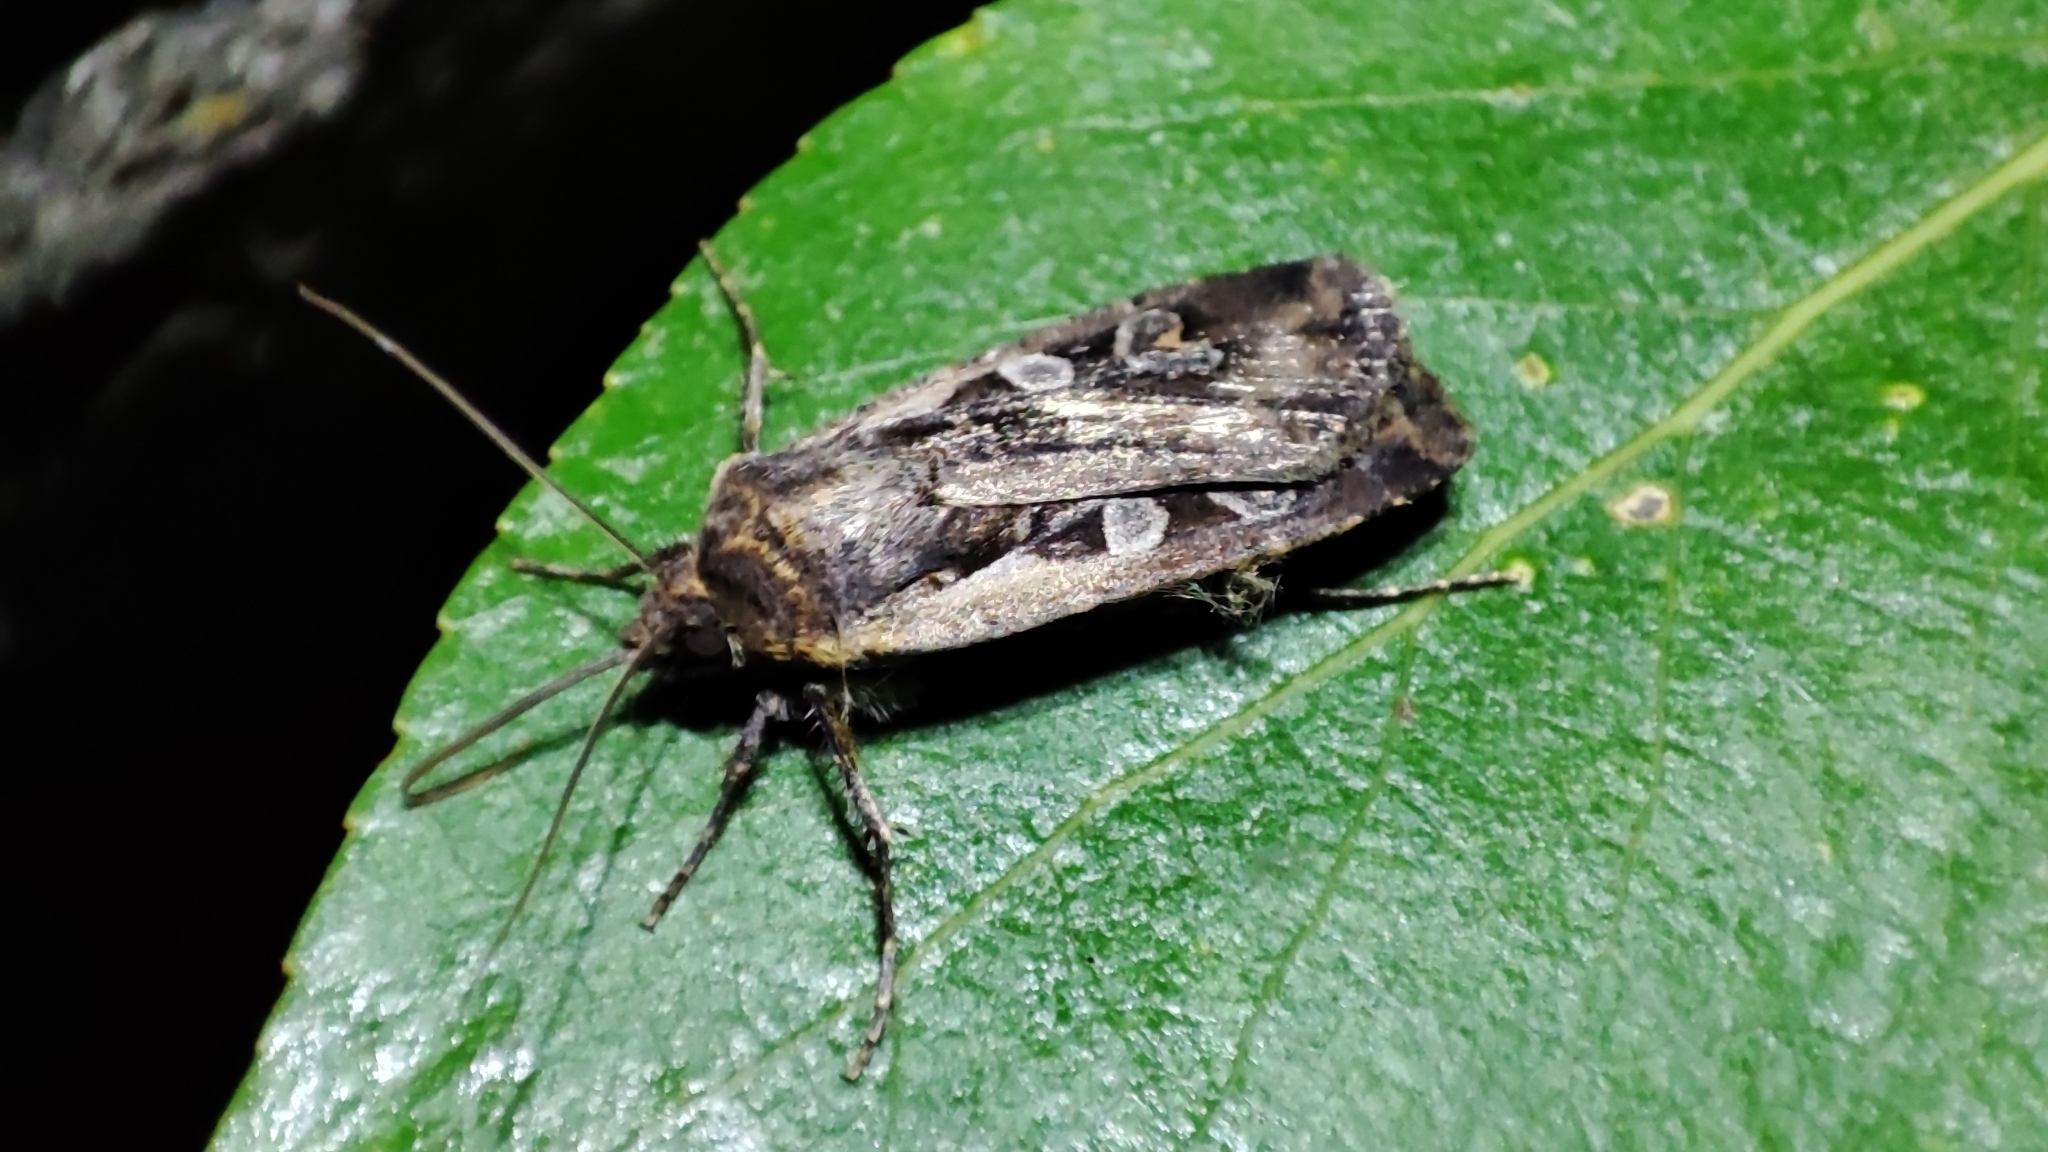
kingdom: Animalia
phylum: Arthropoda
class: Insecta
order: Lepidoptera
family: Noctuidae
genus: Euxoa
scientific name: Euxoa ochrogaster
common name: Red-backed cutworm moth
